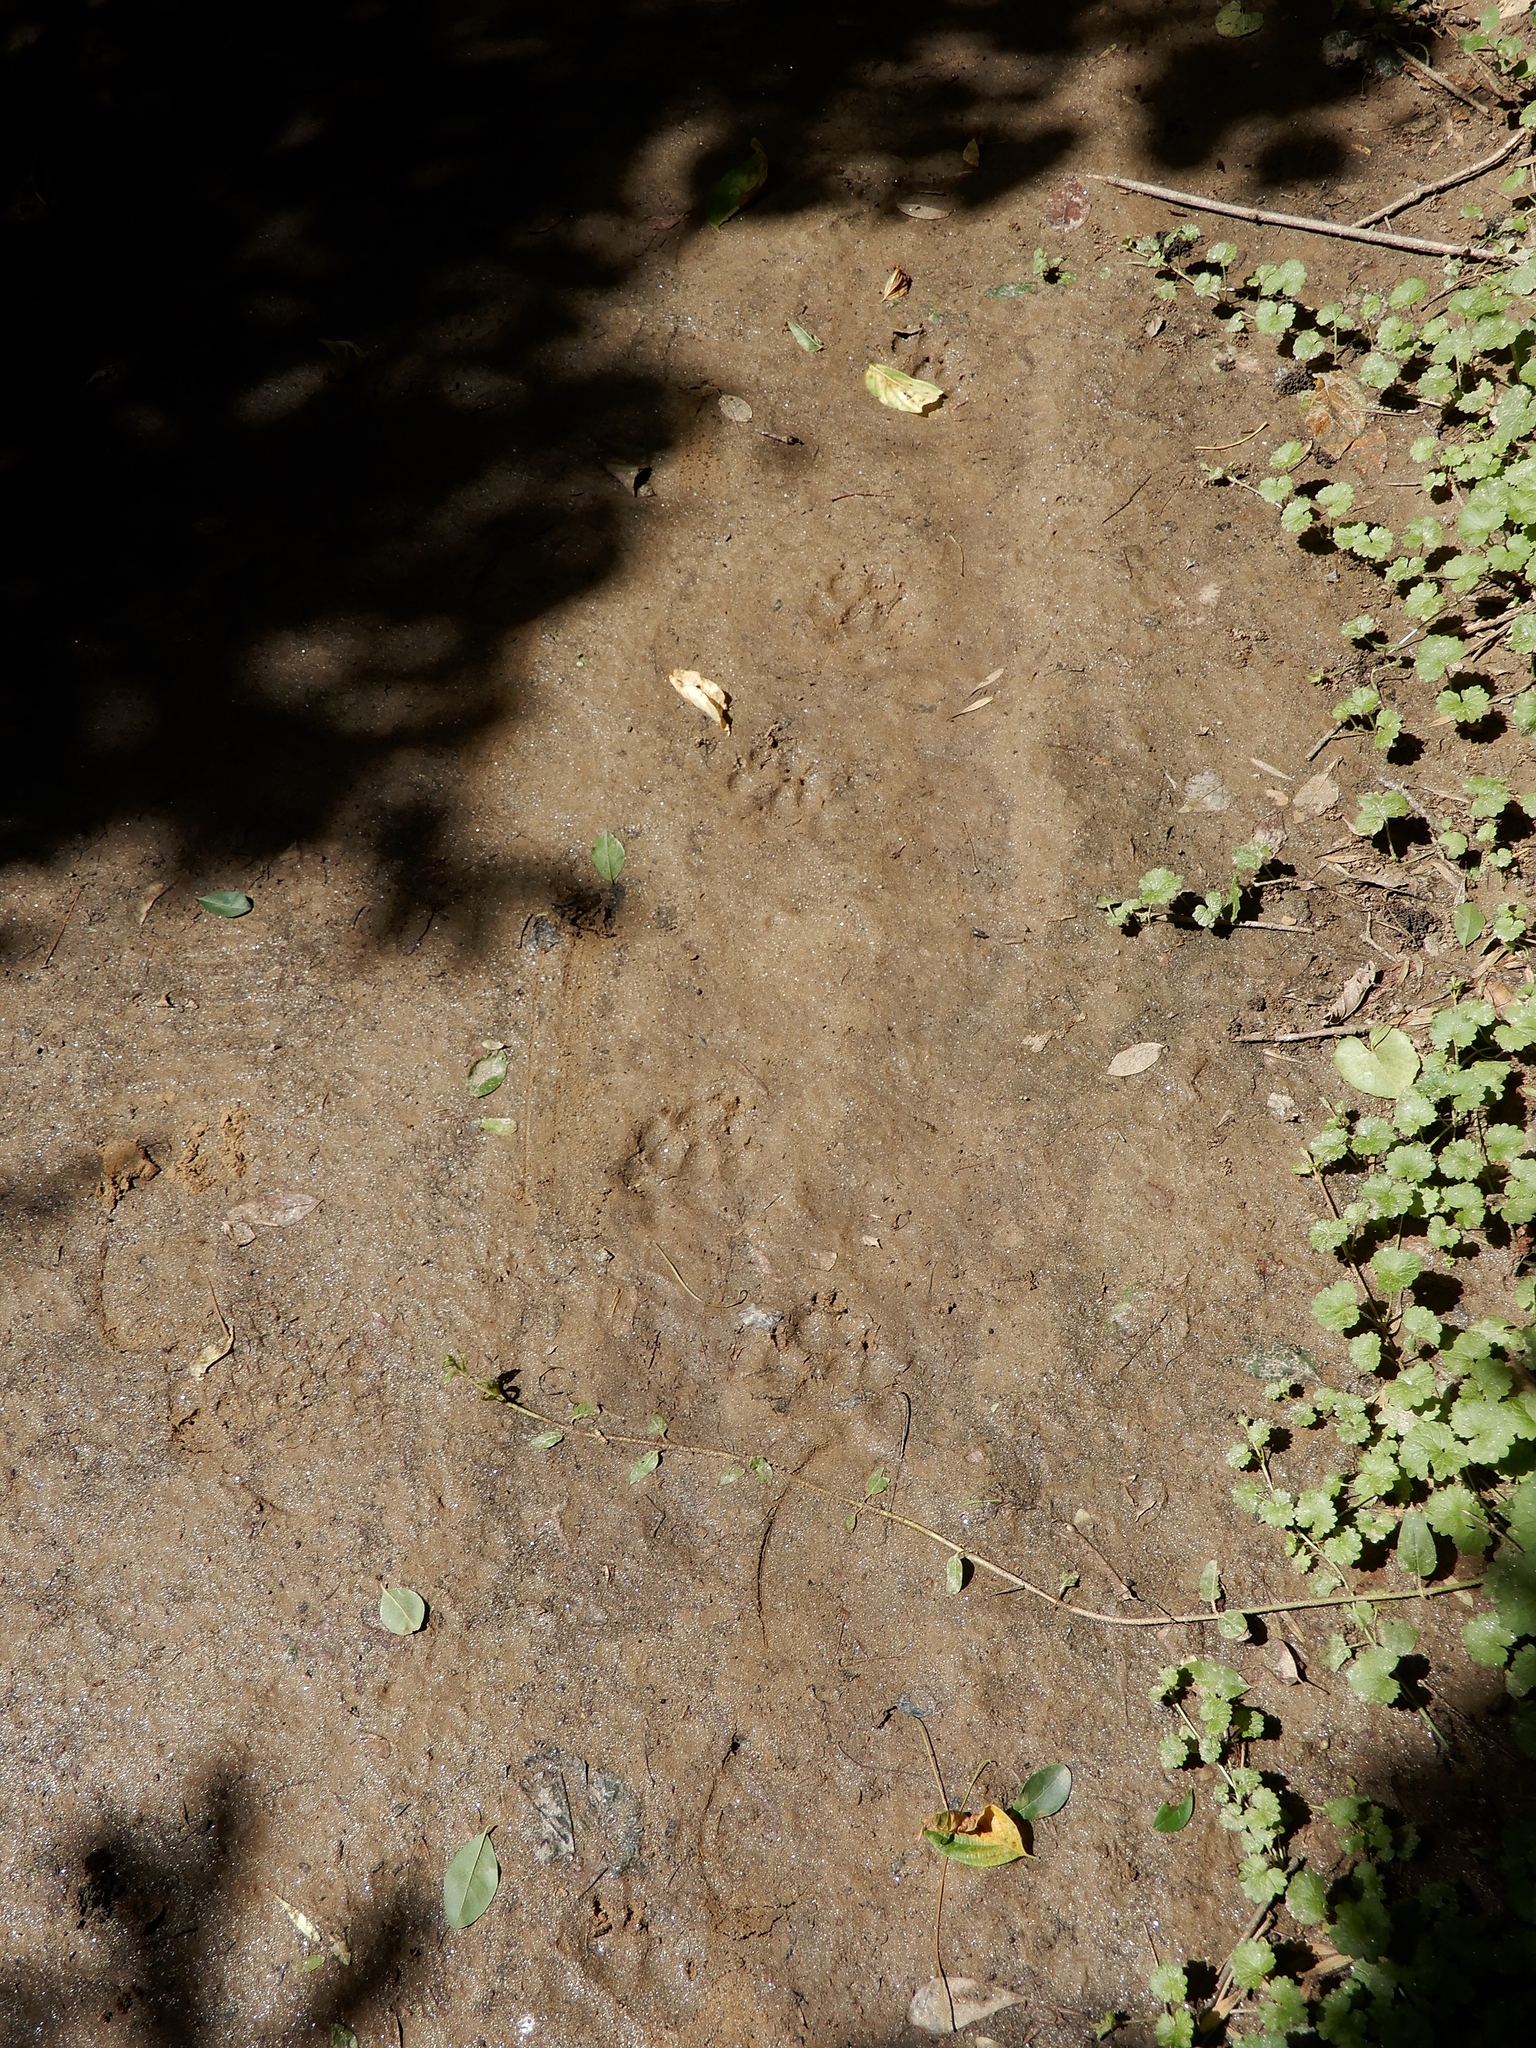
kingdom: Animalia
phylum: Chordata
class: Mammalia
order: Carnivora
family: Canidae
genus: Canis
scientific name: Canis latrans
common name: Coyote
